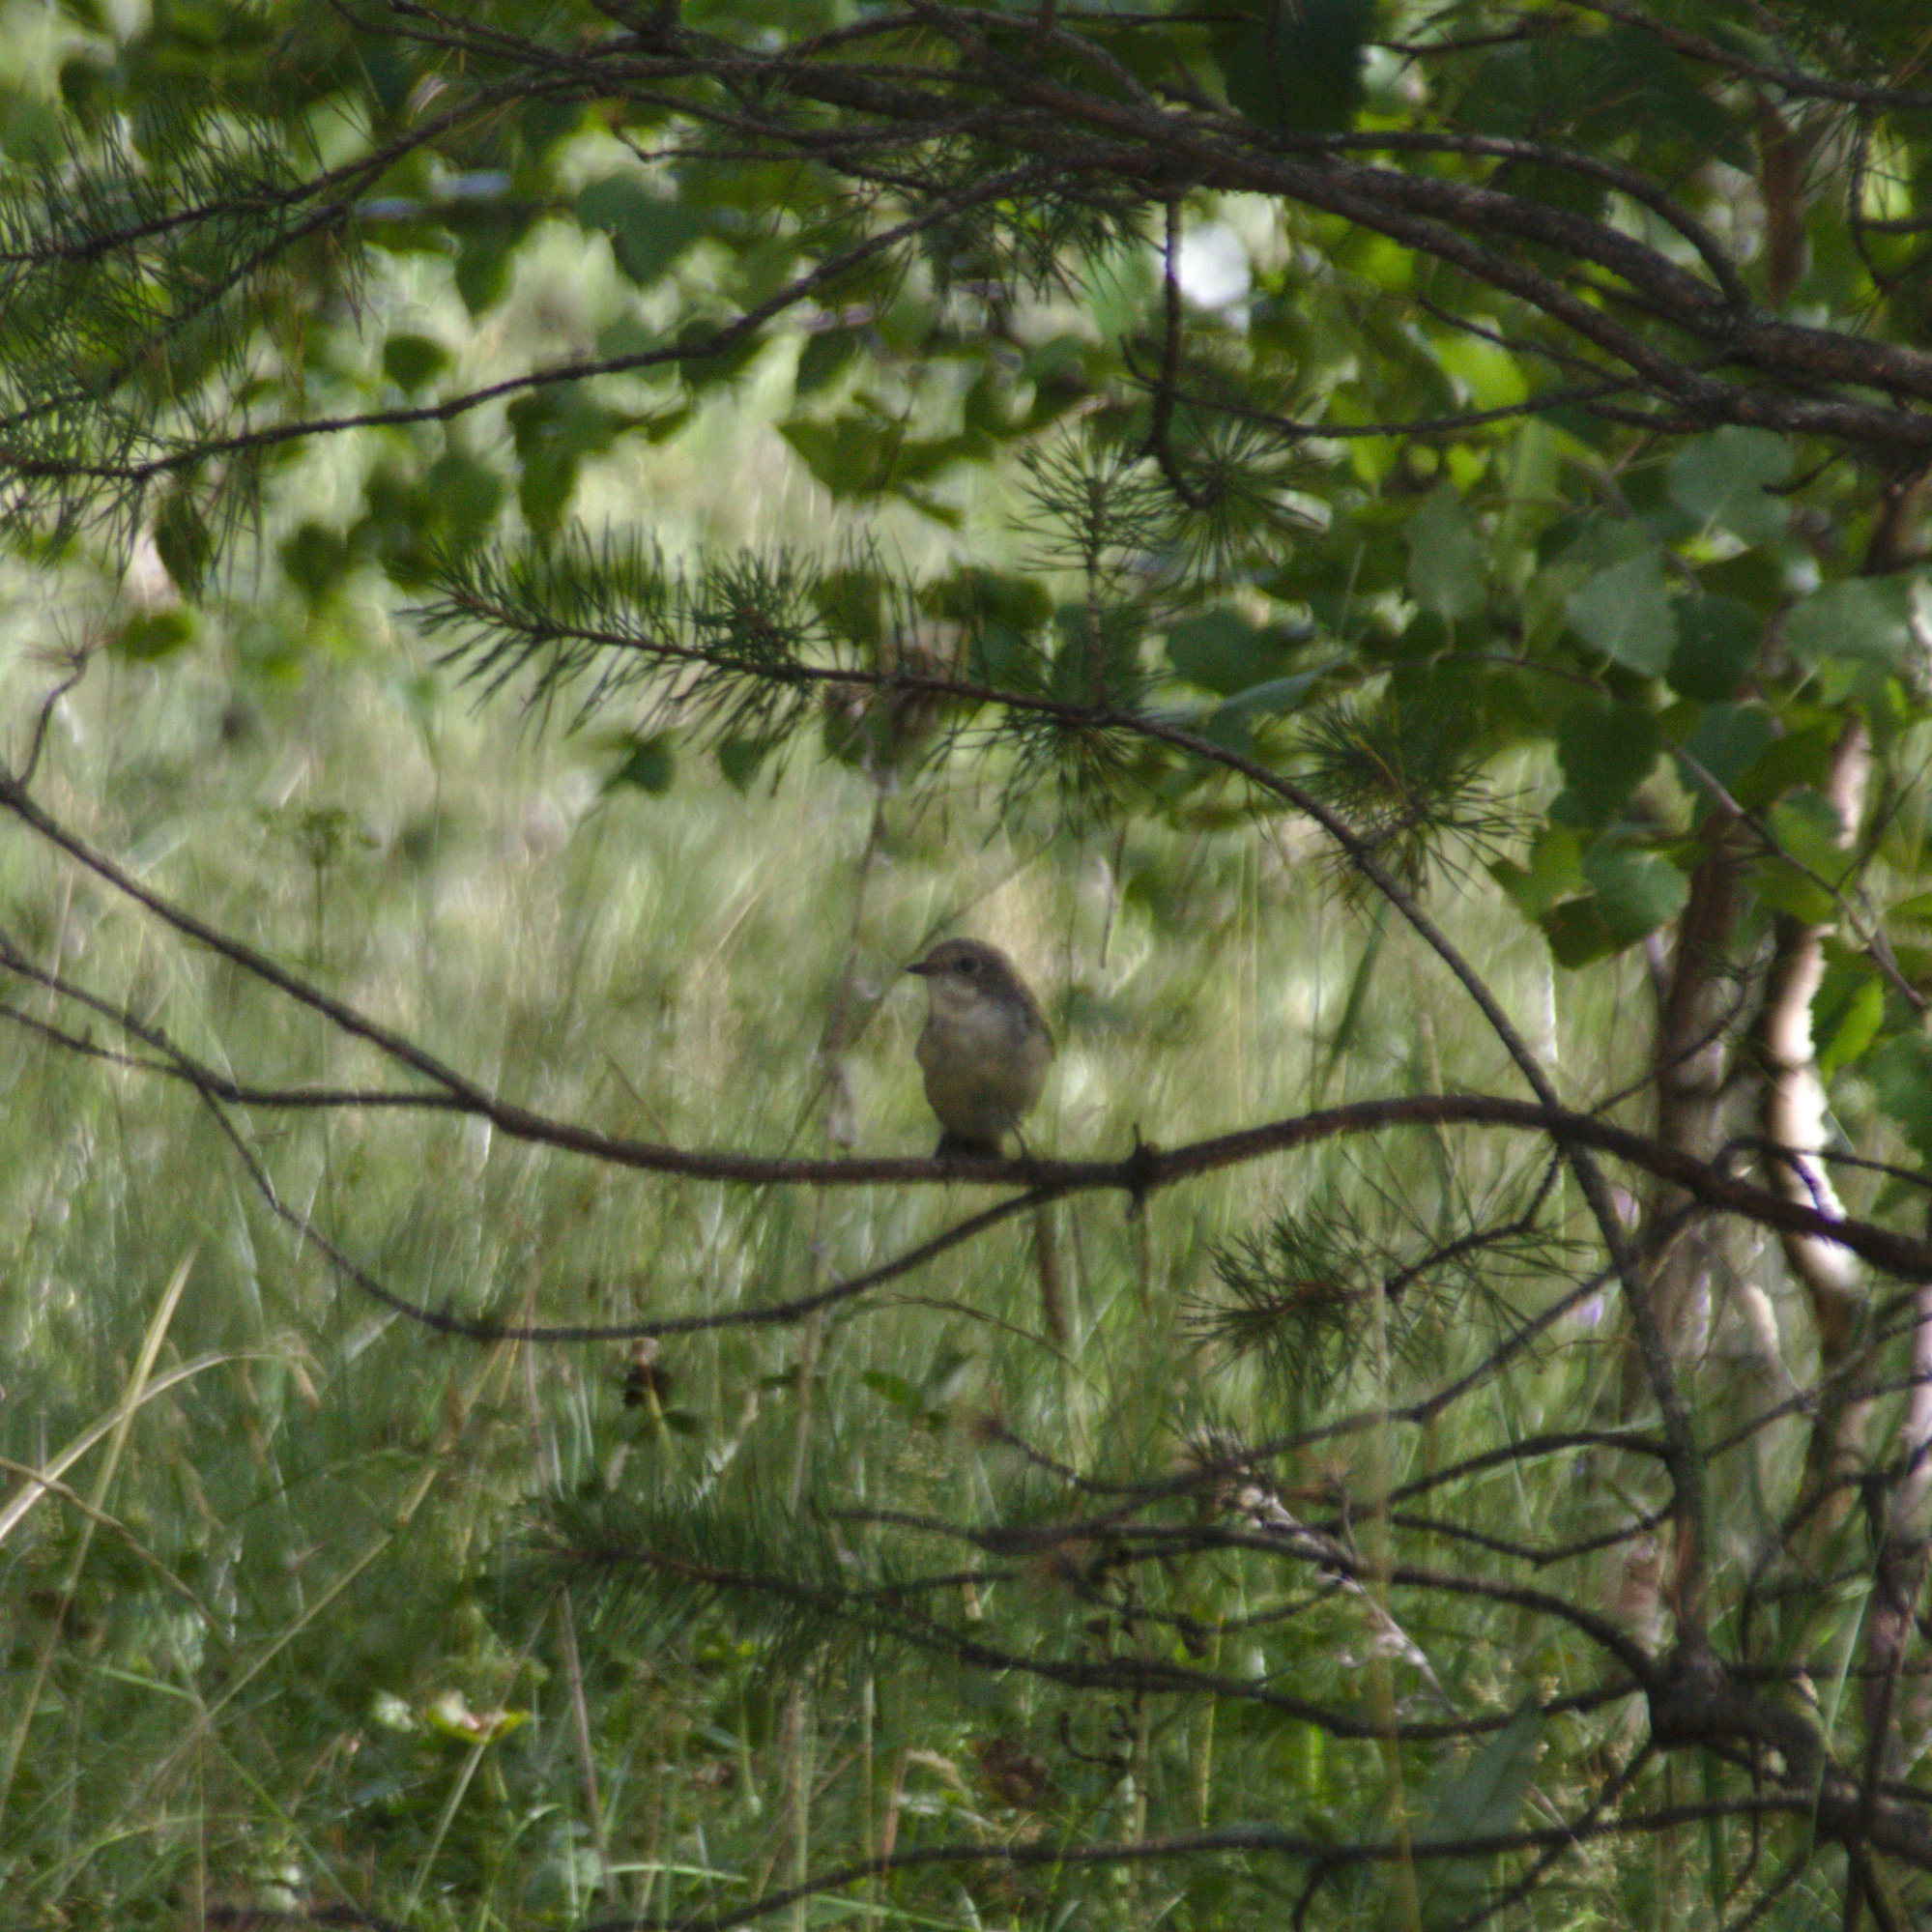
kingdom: Animalia
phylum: Chordata
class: Aves
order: Passeriformes
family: Muscicapidae
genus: Ficedula
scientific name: Ficedula hypoleuca
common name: European pied flycatcher
